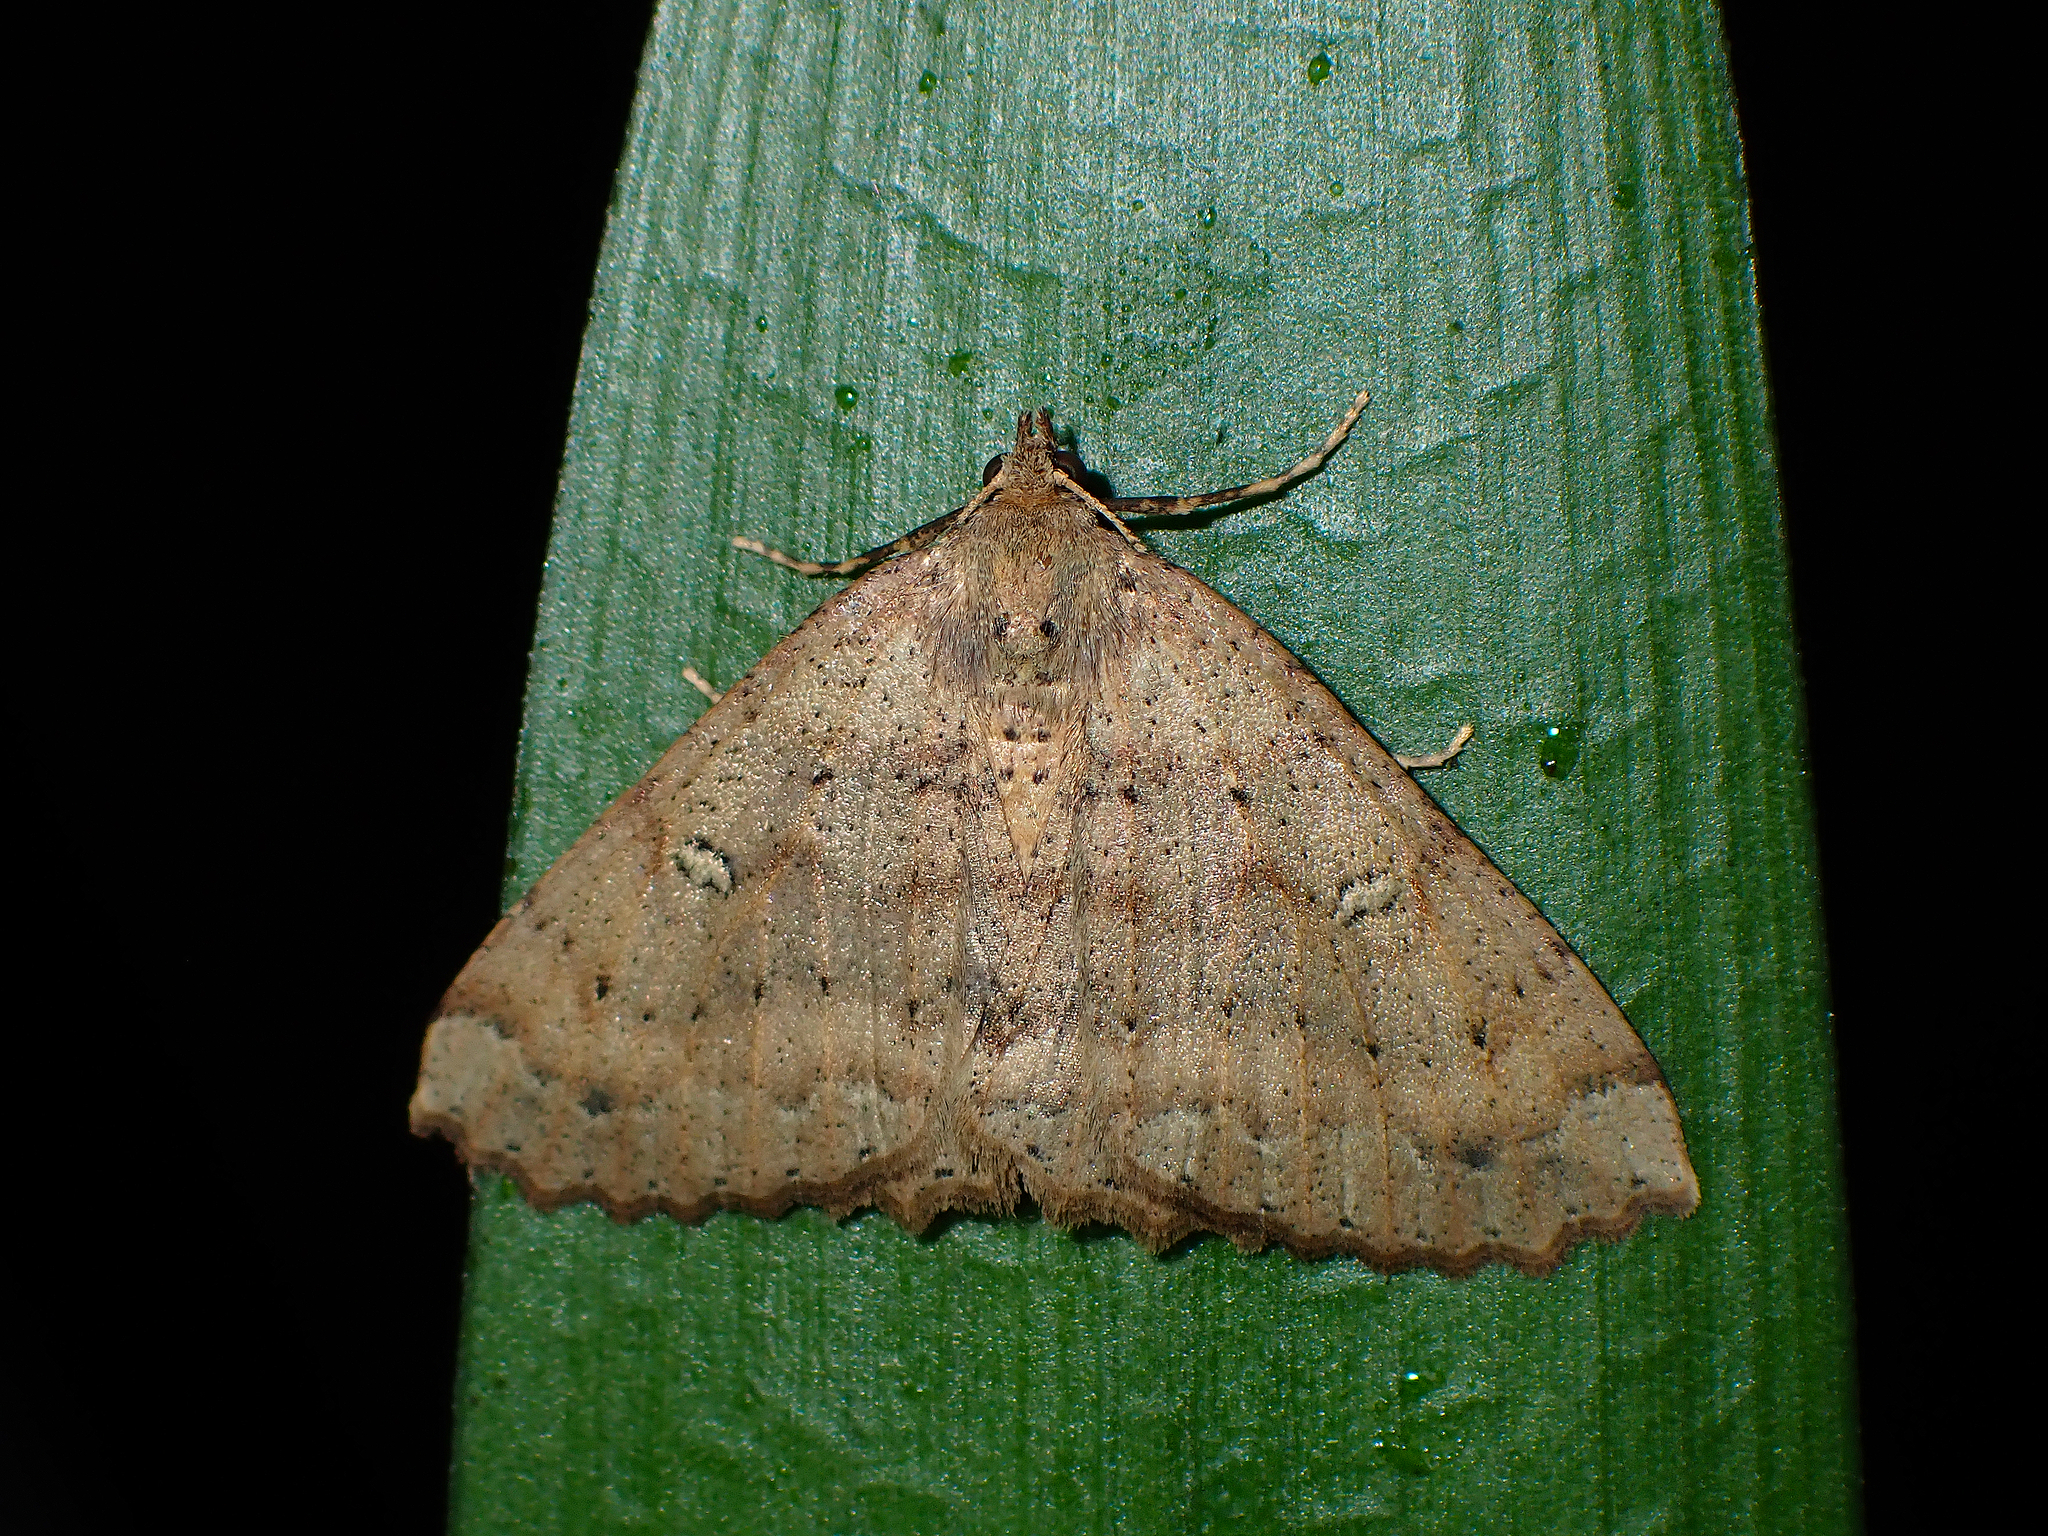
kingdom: Animalia
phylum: Arthropoda
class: Insecta
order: Lepidoptera
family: Geometridae
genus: Cleora
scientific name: Cleora scriptaria
